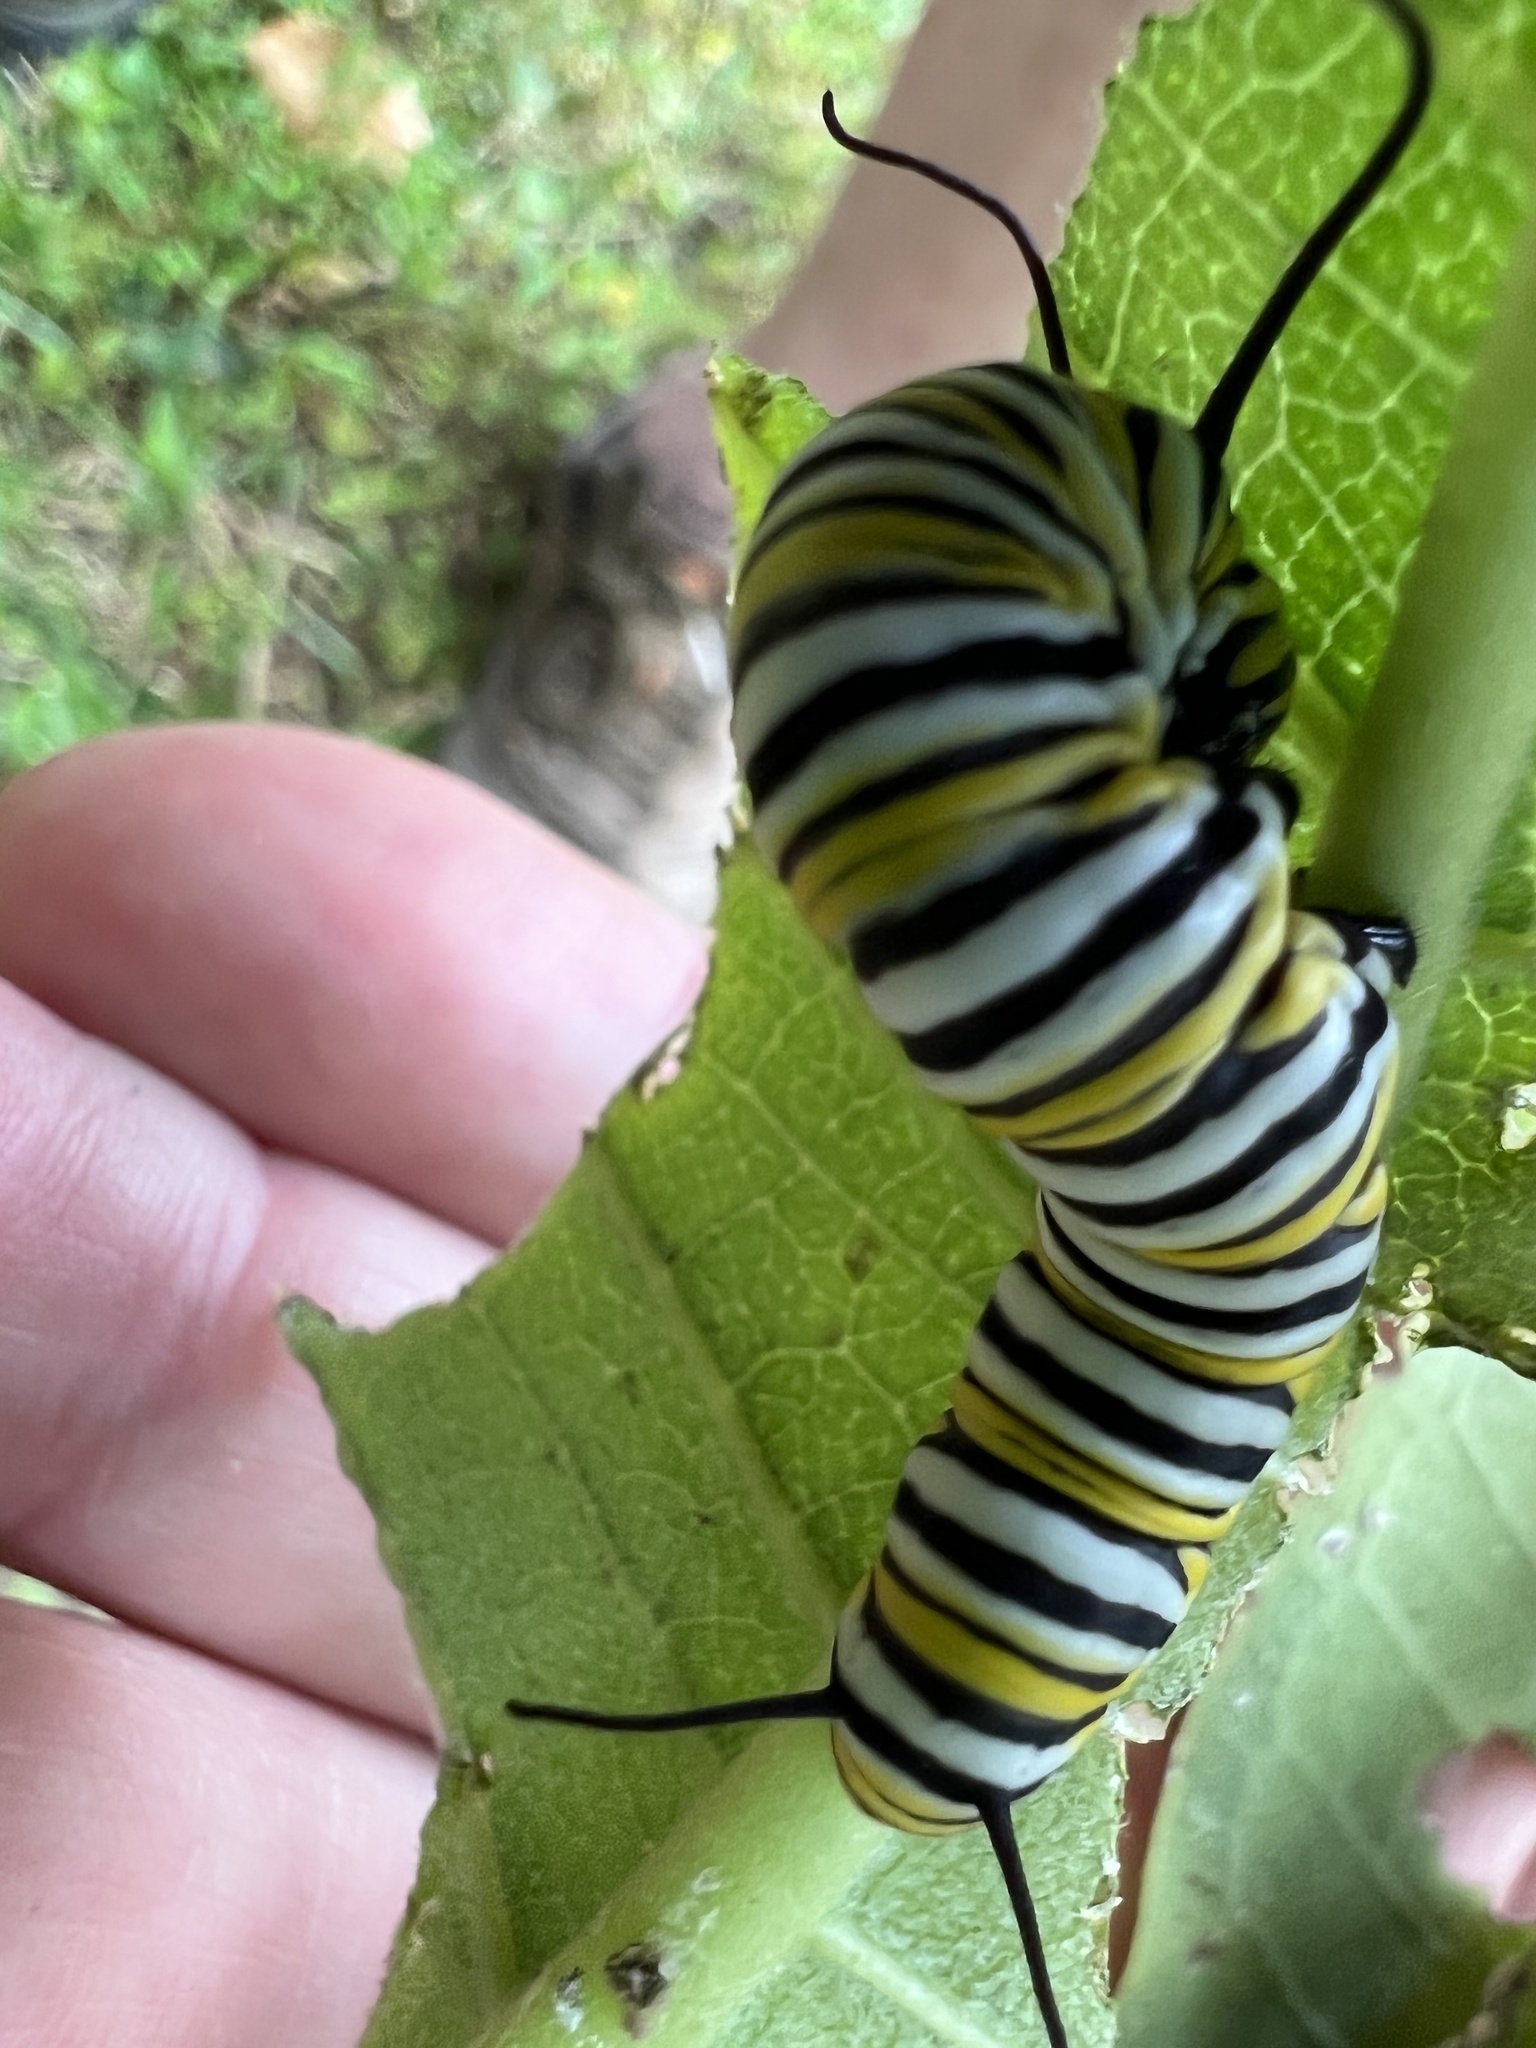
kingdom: Animalia
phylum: Arthropoda
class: Insecta
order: Lepidoptera
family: Nymphalidae
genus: Danaus
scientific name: Danaus plexippus
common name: Monarch
